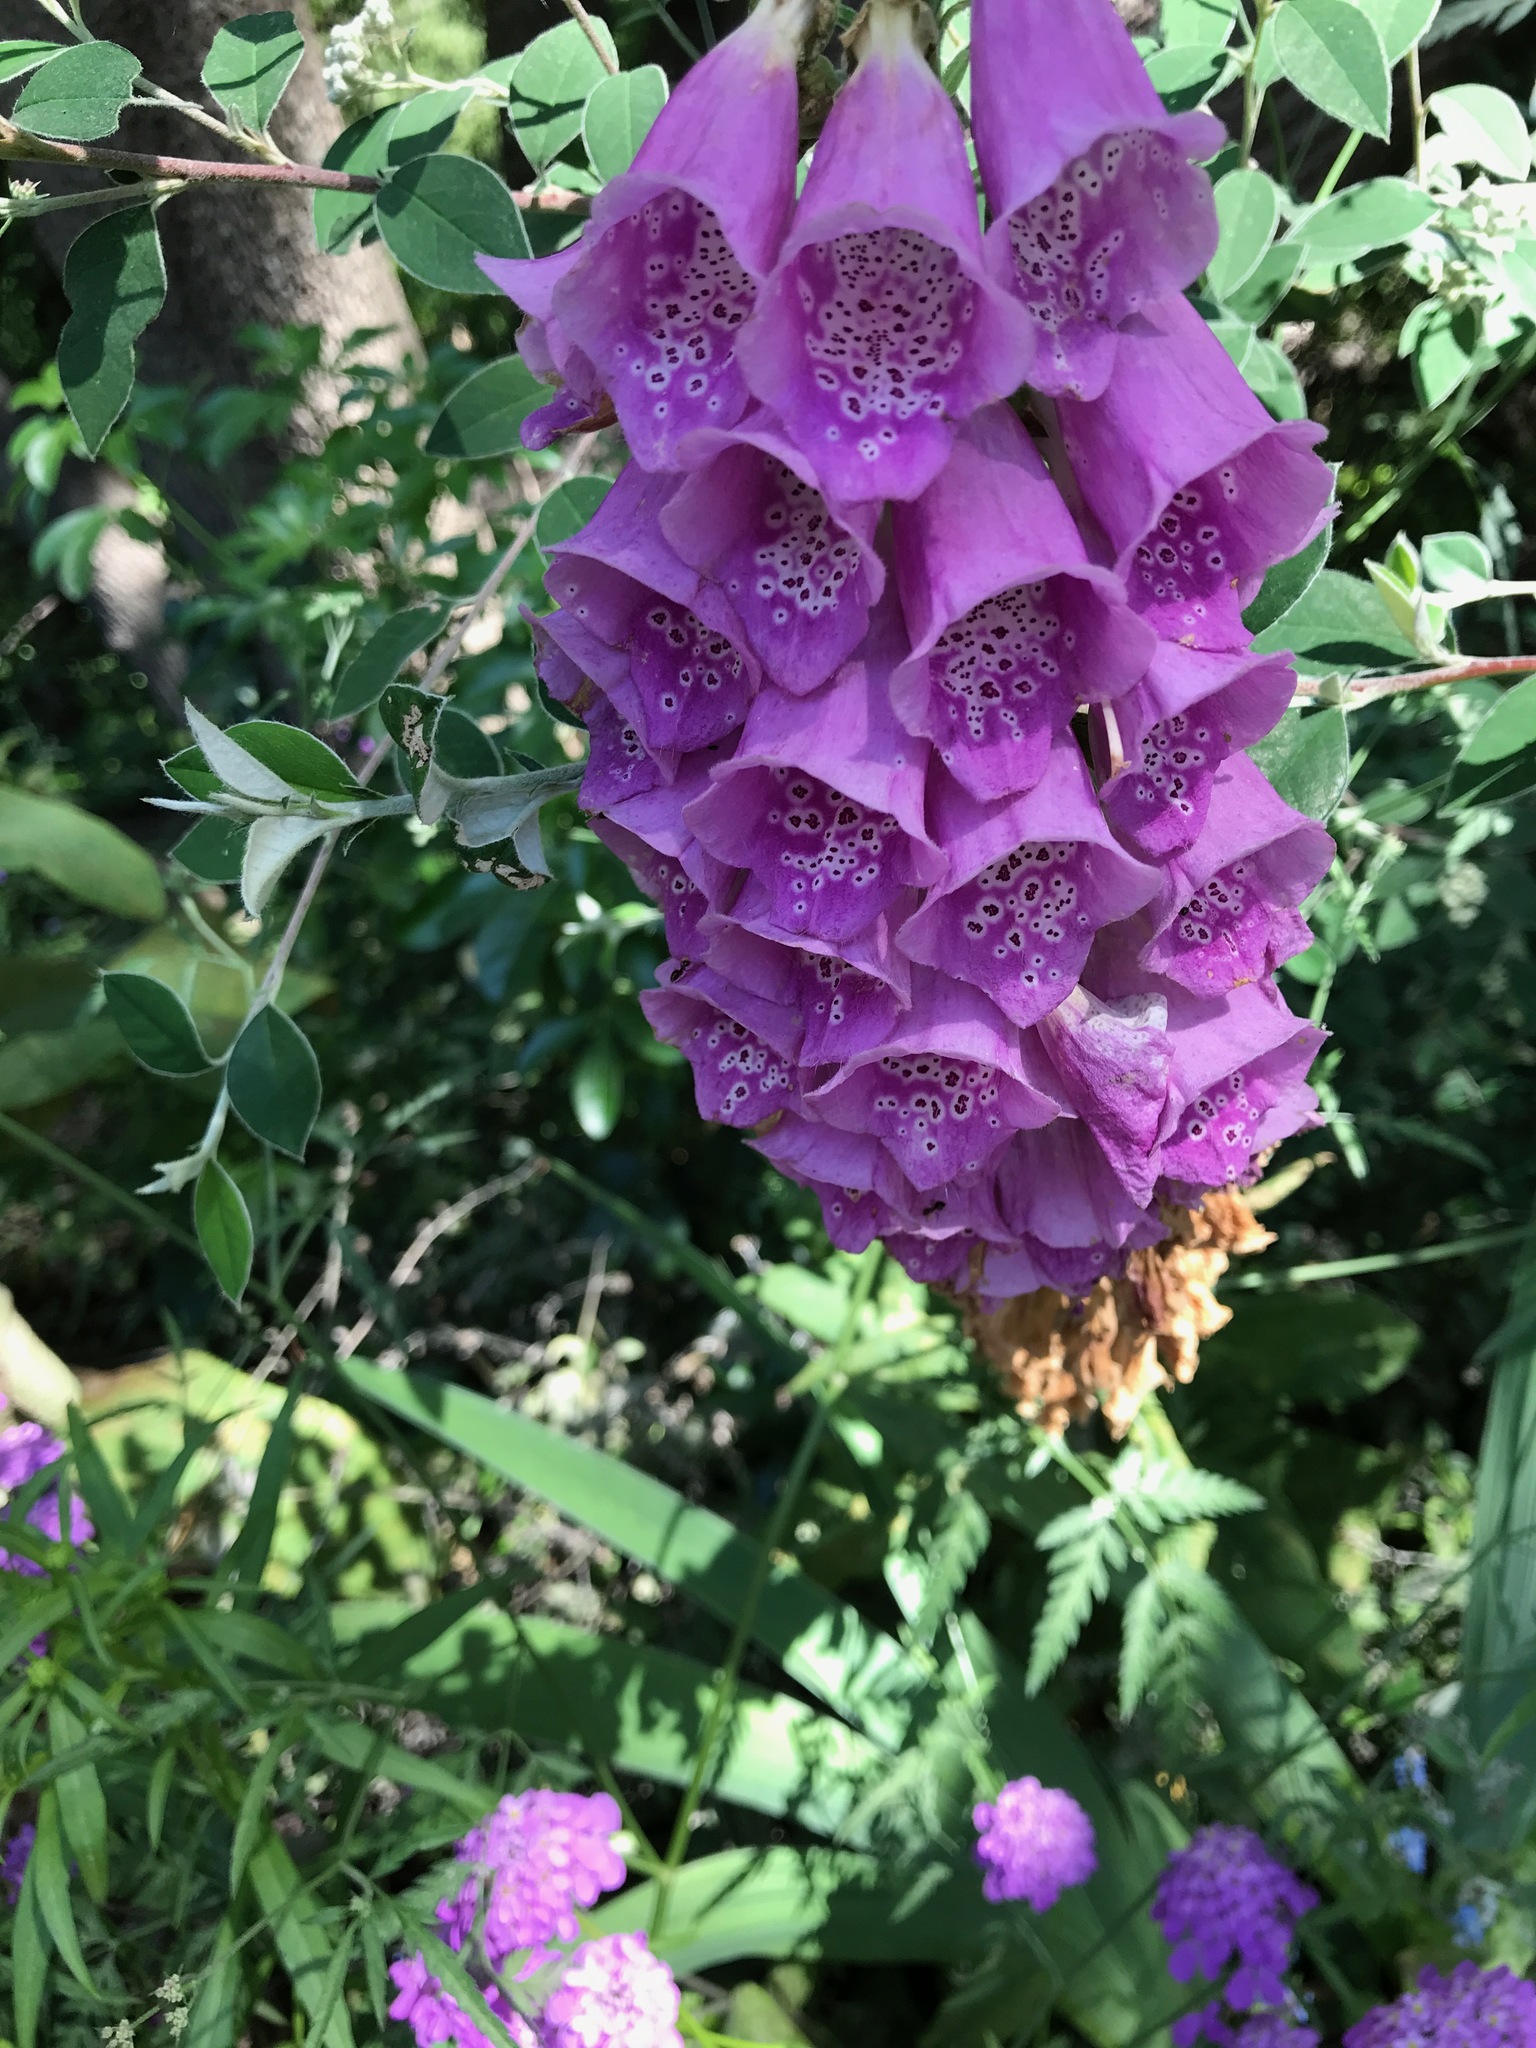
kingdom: Plantae
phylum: Tracheophyta
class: Magnoliopsida
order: Lamiales
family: Plantaginaceae
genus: Digitalis
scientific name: Digitalis purpurea
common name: Foxglove
